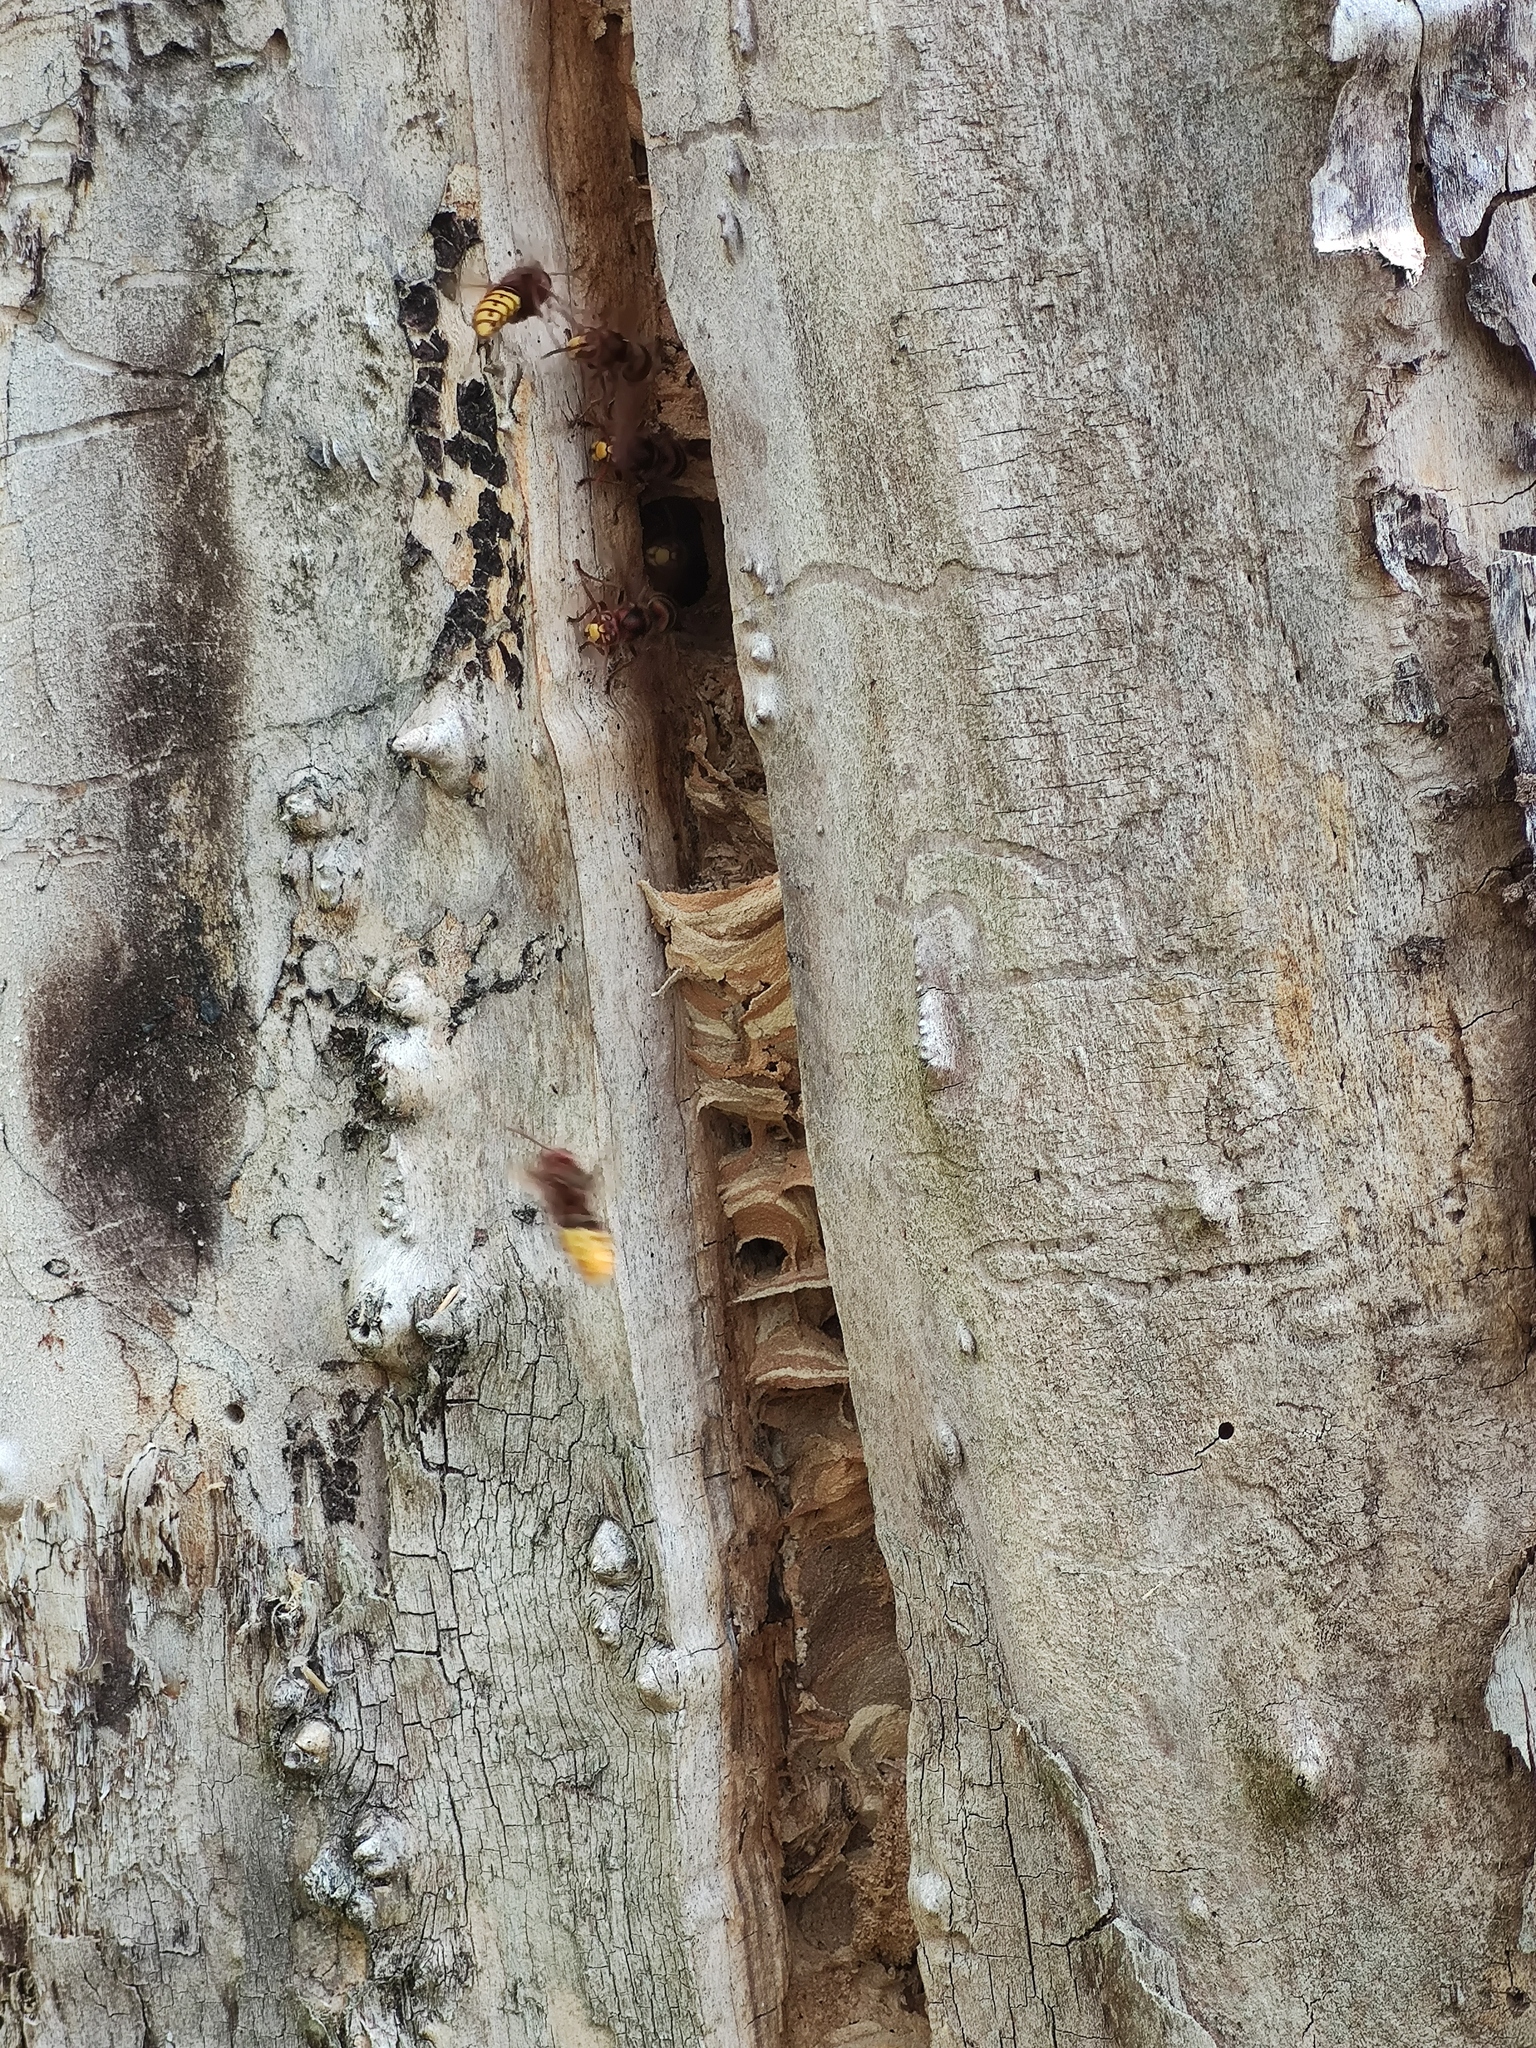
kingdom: Animalia
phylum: Arthropoda
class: Insecta
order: Hymenoptera
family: Vespidae
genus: Vespa
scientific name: Vespa crabro
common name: Hornet
